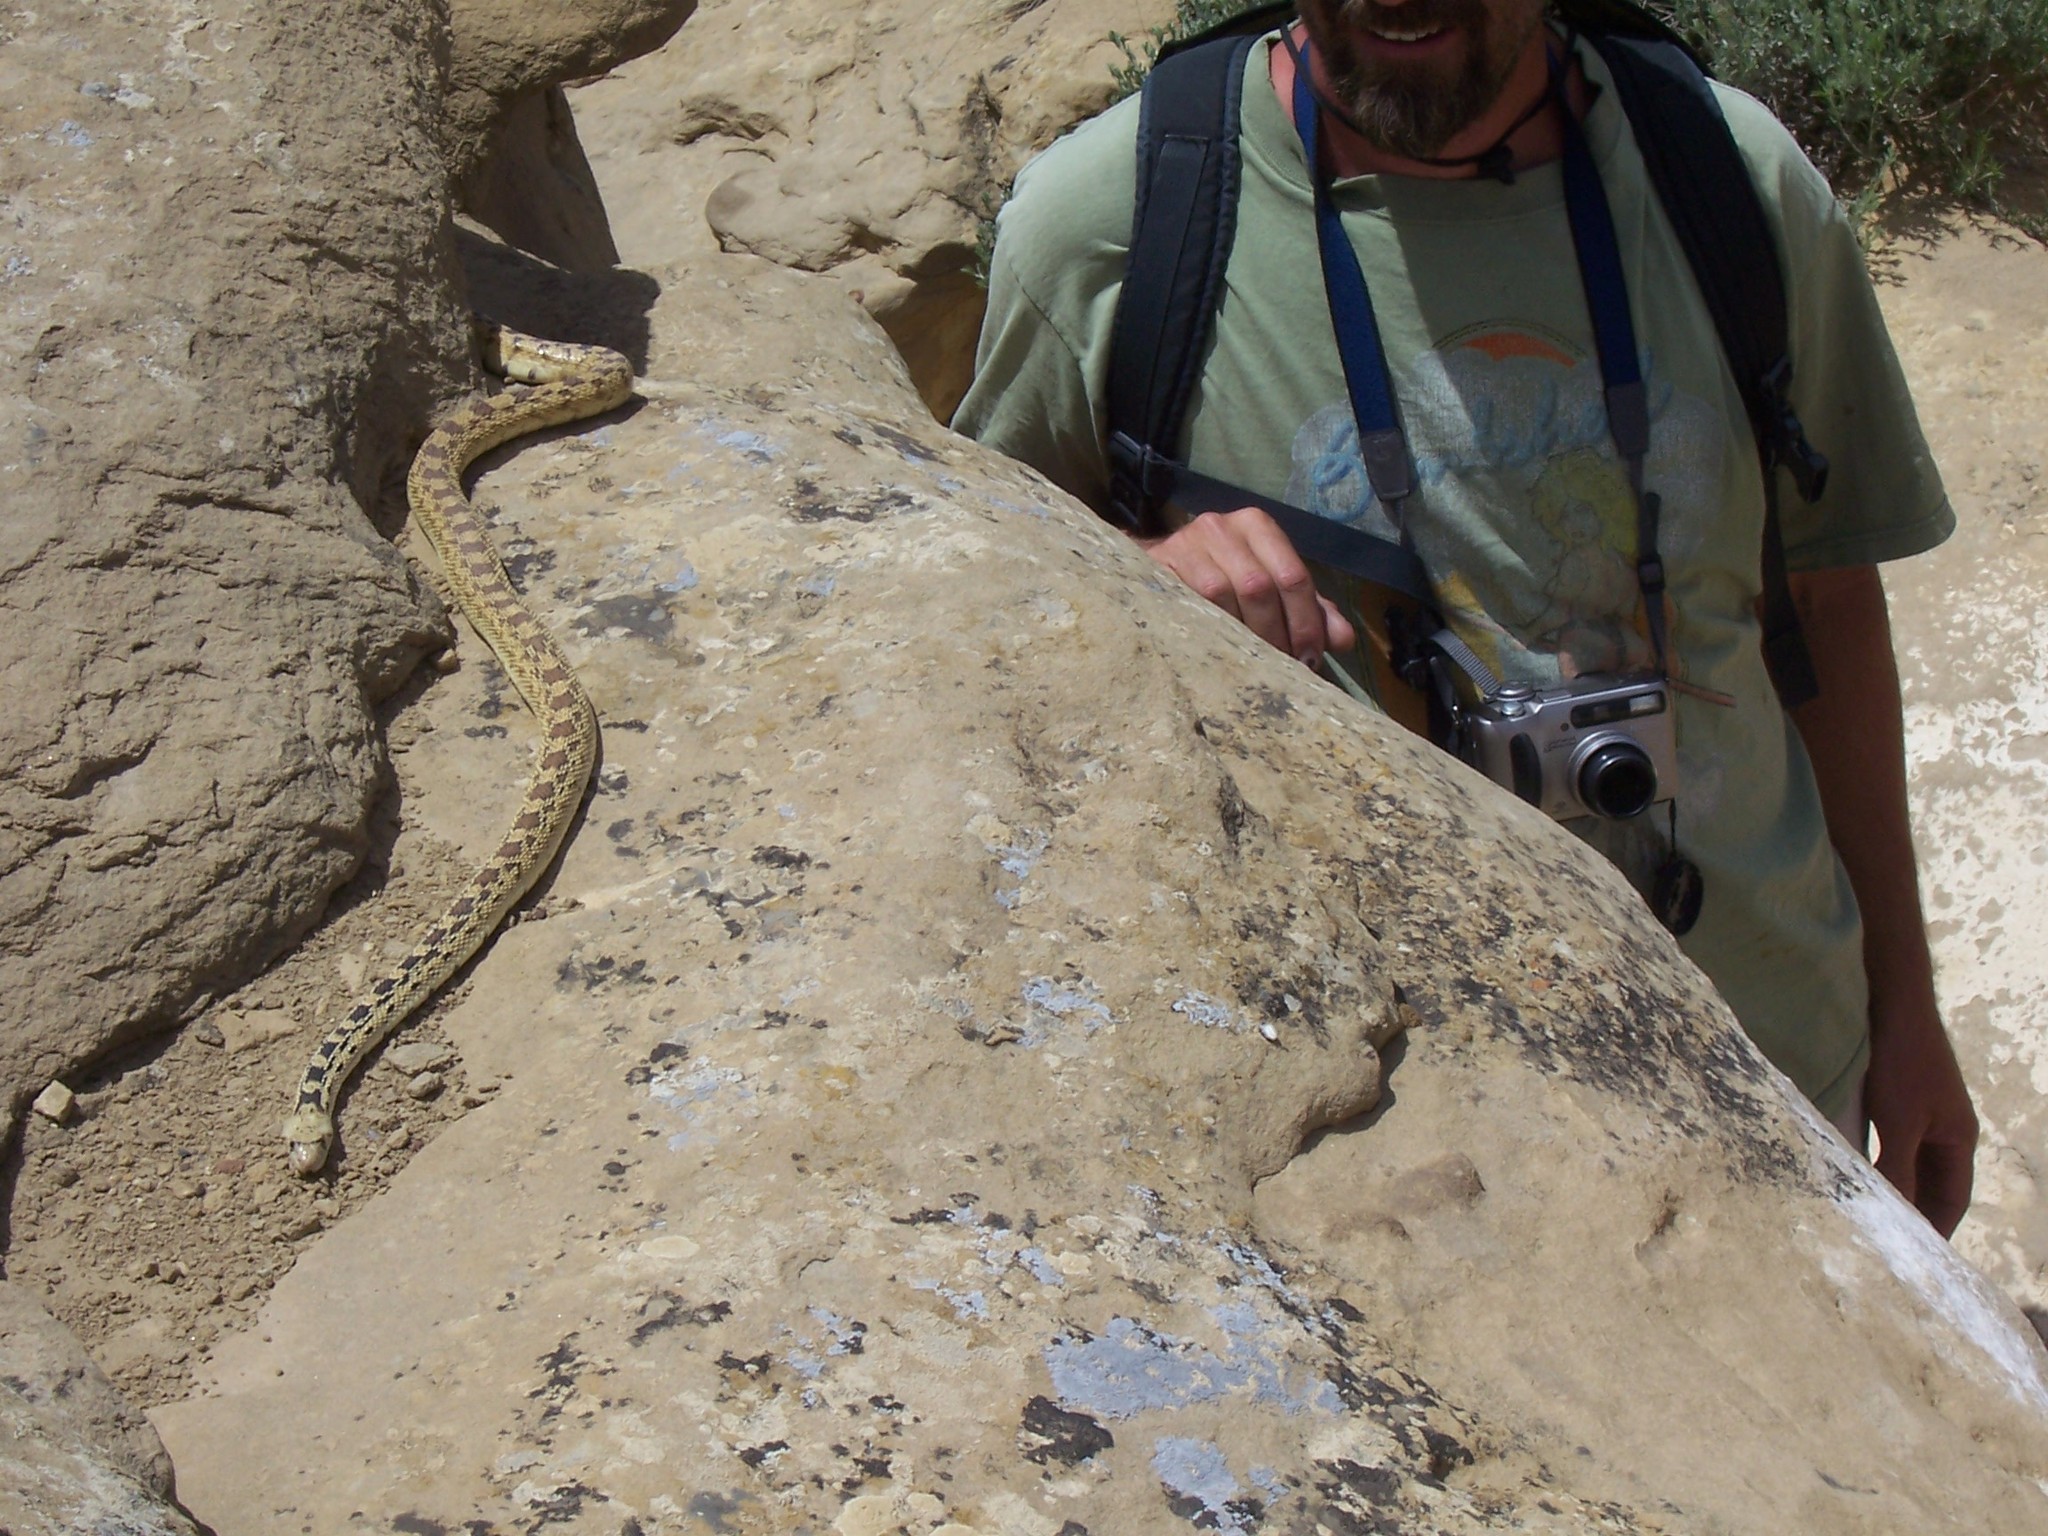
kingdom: Animalia
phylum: Chordata
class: Squamata
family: Colubridae
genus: Pituophis
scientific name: Pituophis catenifer
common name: Gopher snake
